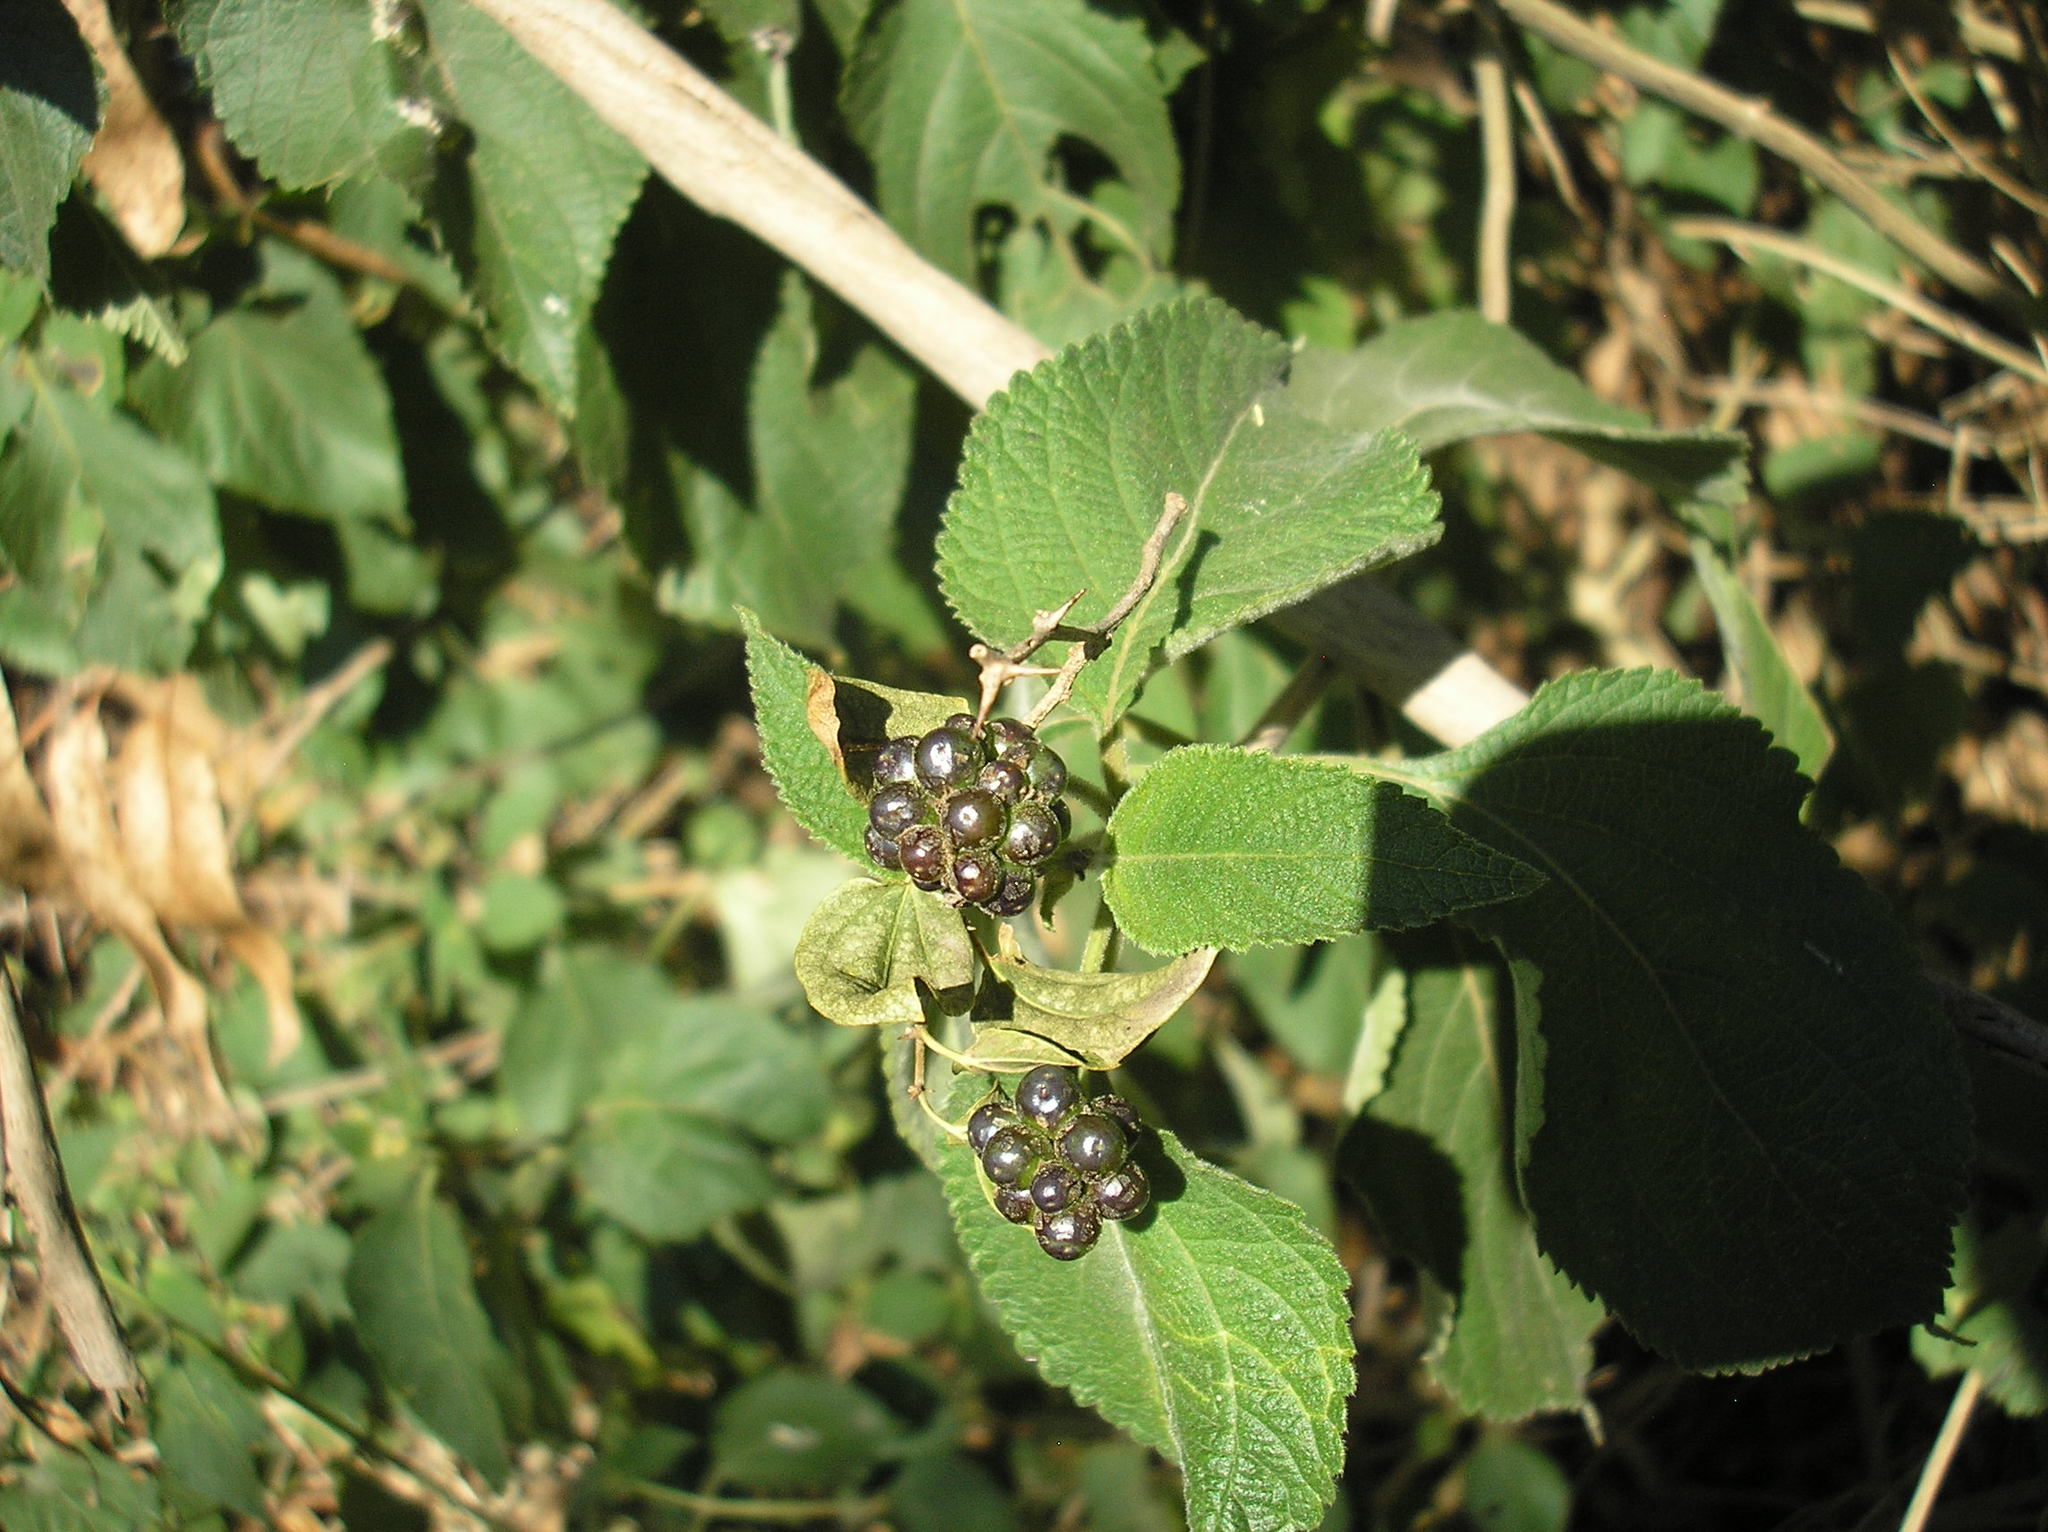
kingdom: Plantae
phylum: Tracheophyta
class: Magnoliopsida
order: Lamiales
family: Verbenaceae
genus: Lantana
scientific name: Lantana camara
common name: Lantana
